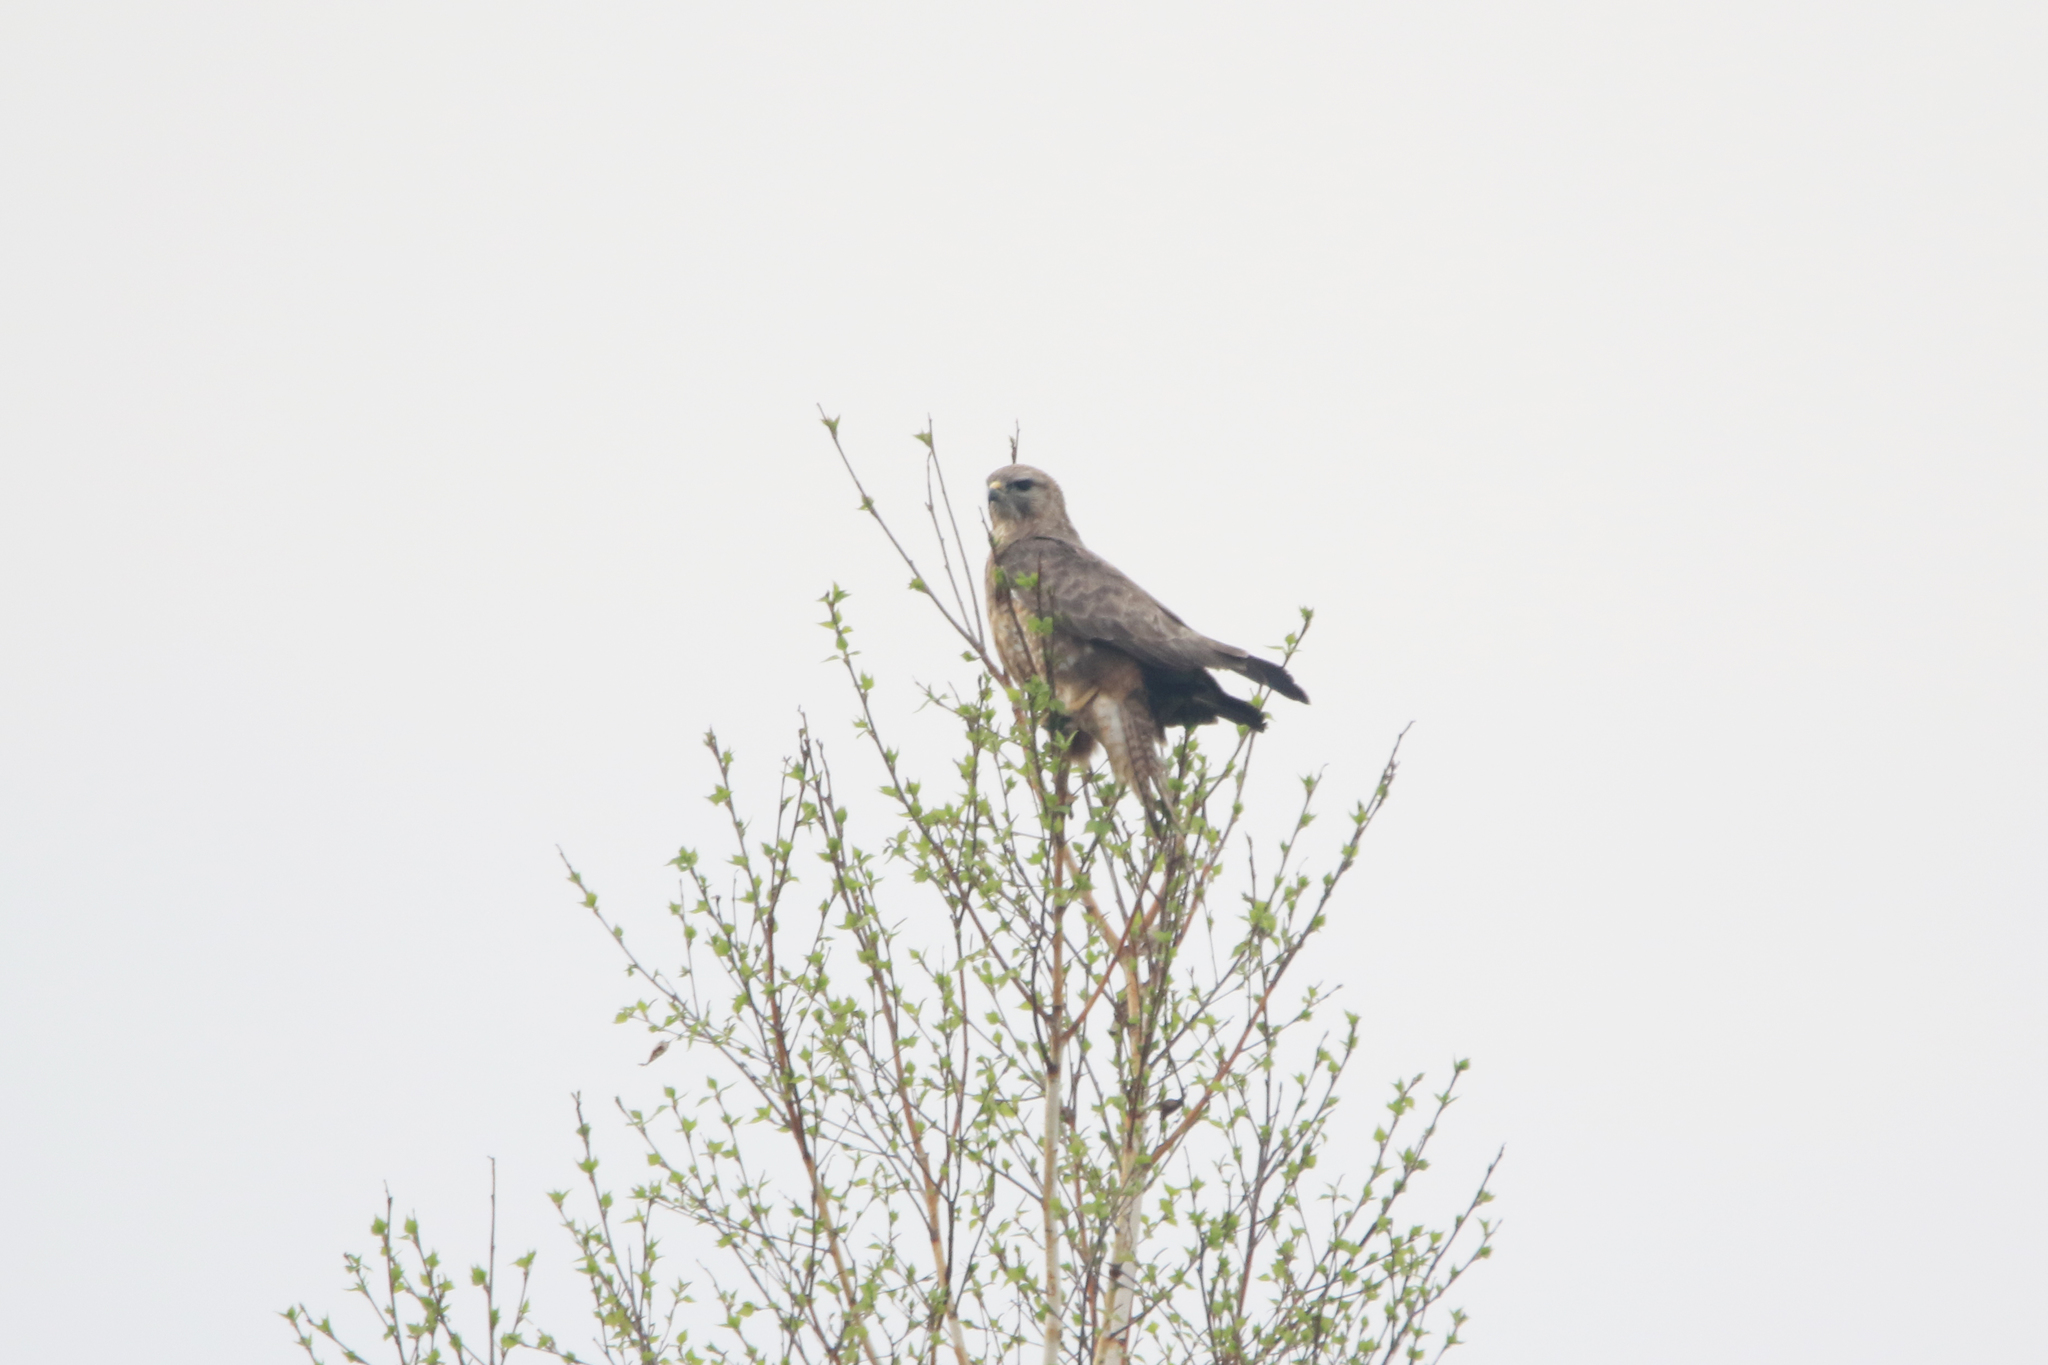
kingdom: Animalia
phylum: Chordata
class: Aves
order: Accipitriformes
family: Accipitridae
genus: Buteo
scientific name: Buteo buteo
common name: Common buzzard
